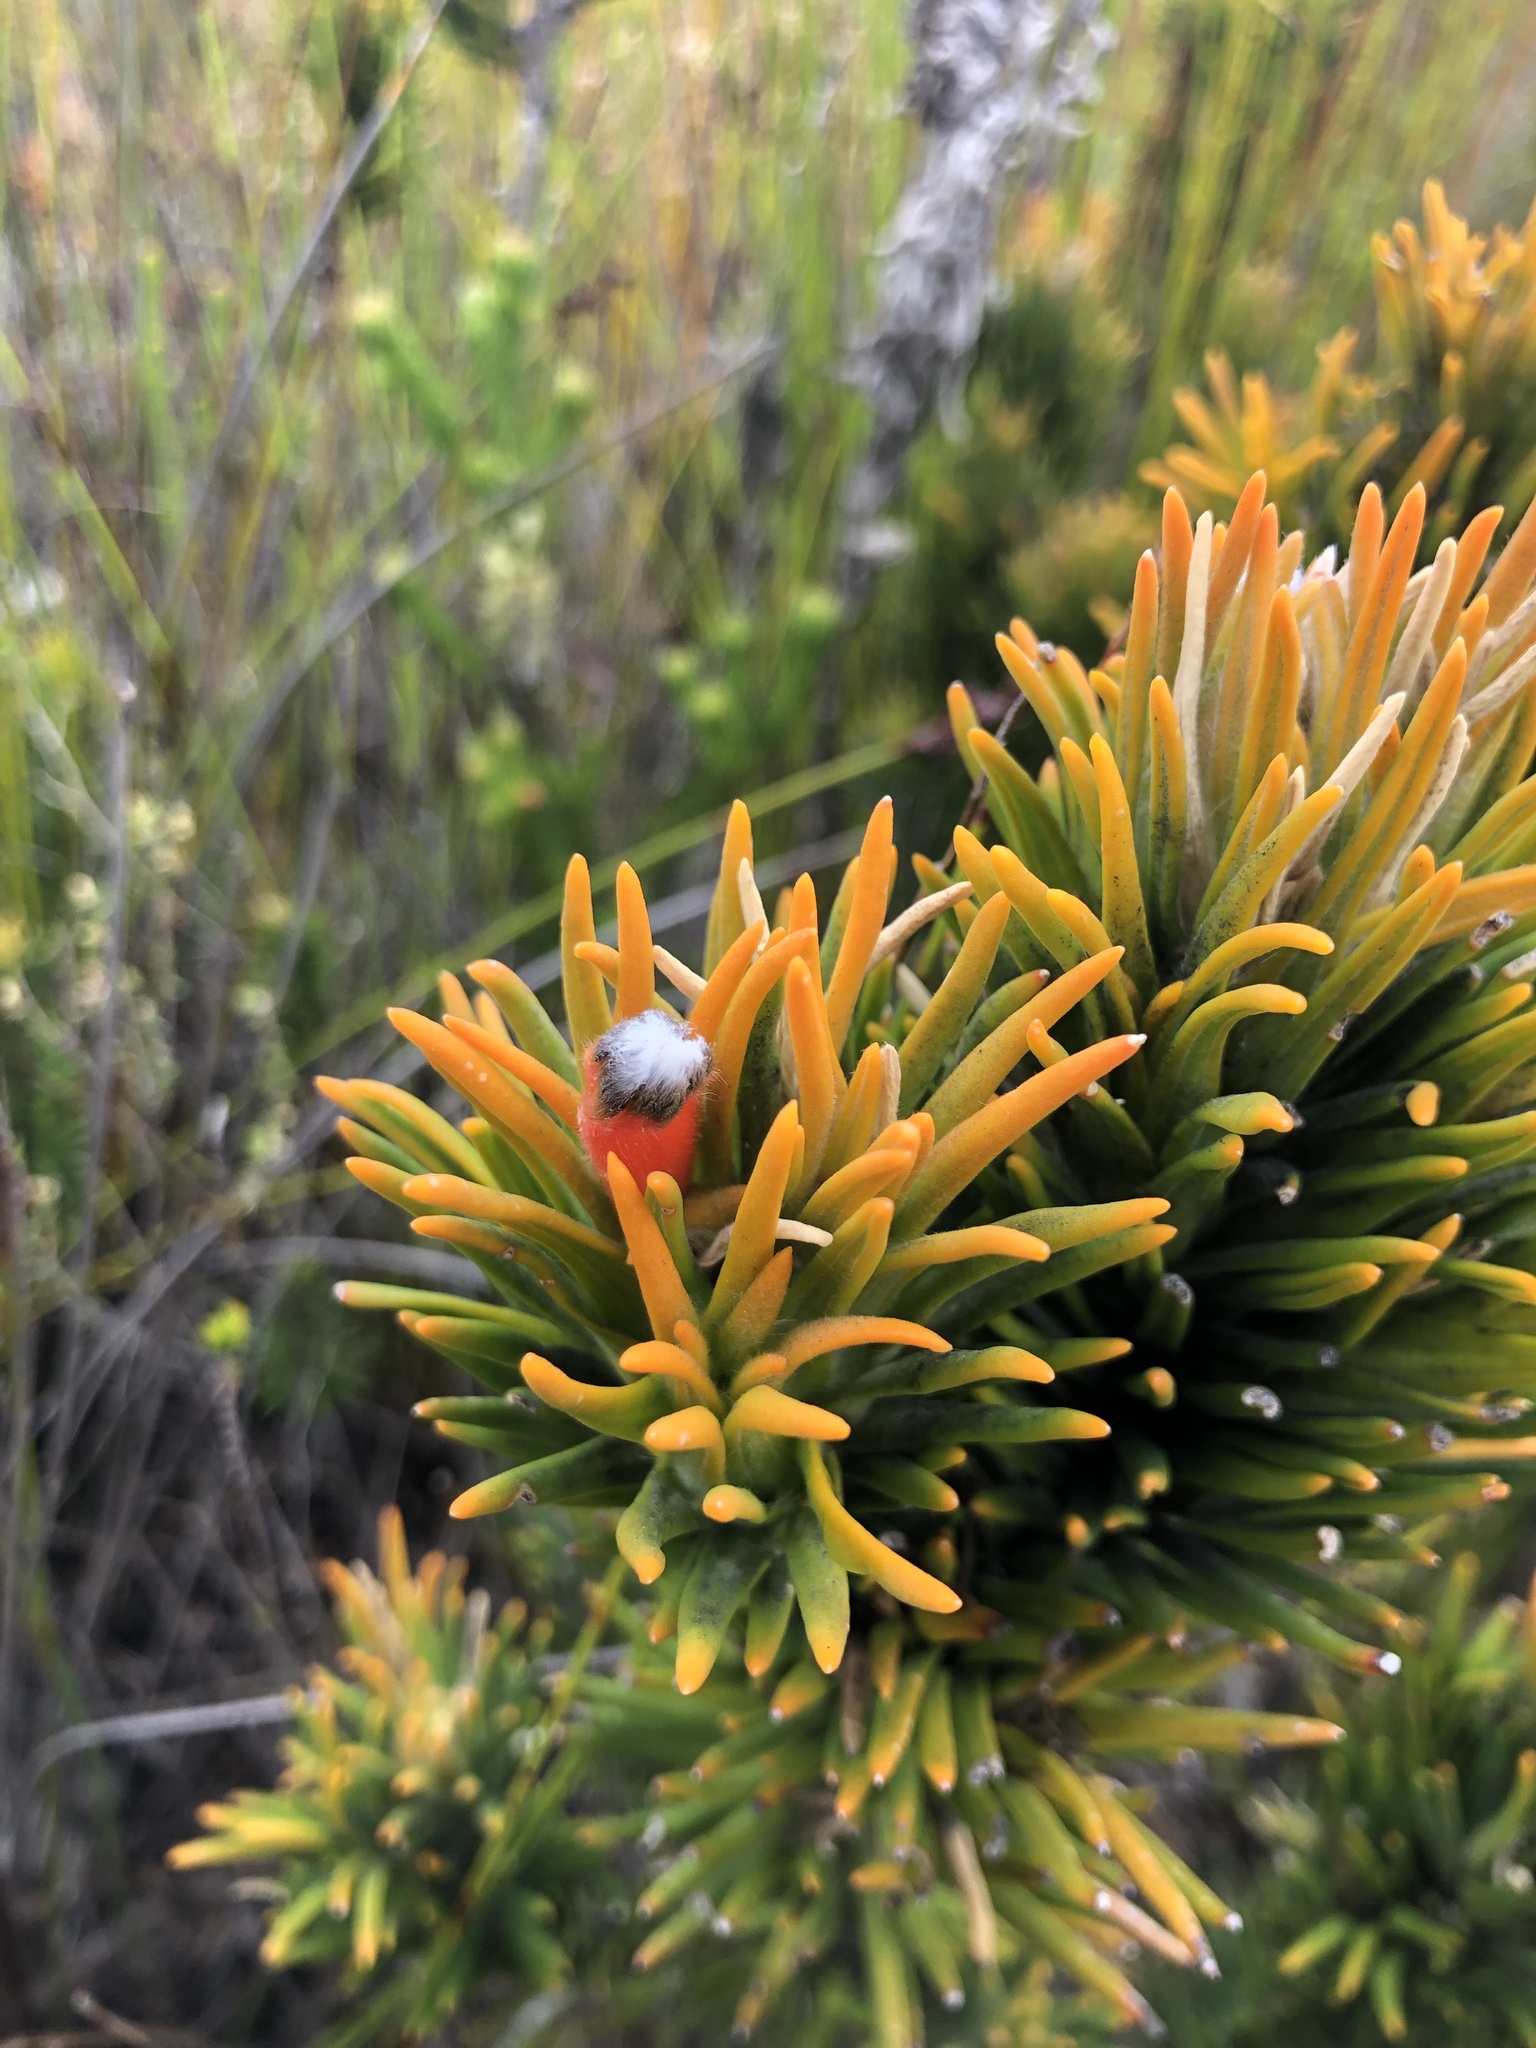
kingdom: Plantae
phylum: Tracheophyta
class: Magnoliopsida
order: Lamiales
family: Stilbaceae
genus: Retzia
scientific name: Retzia capensis
